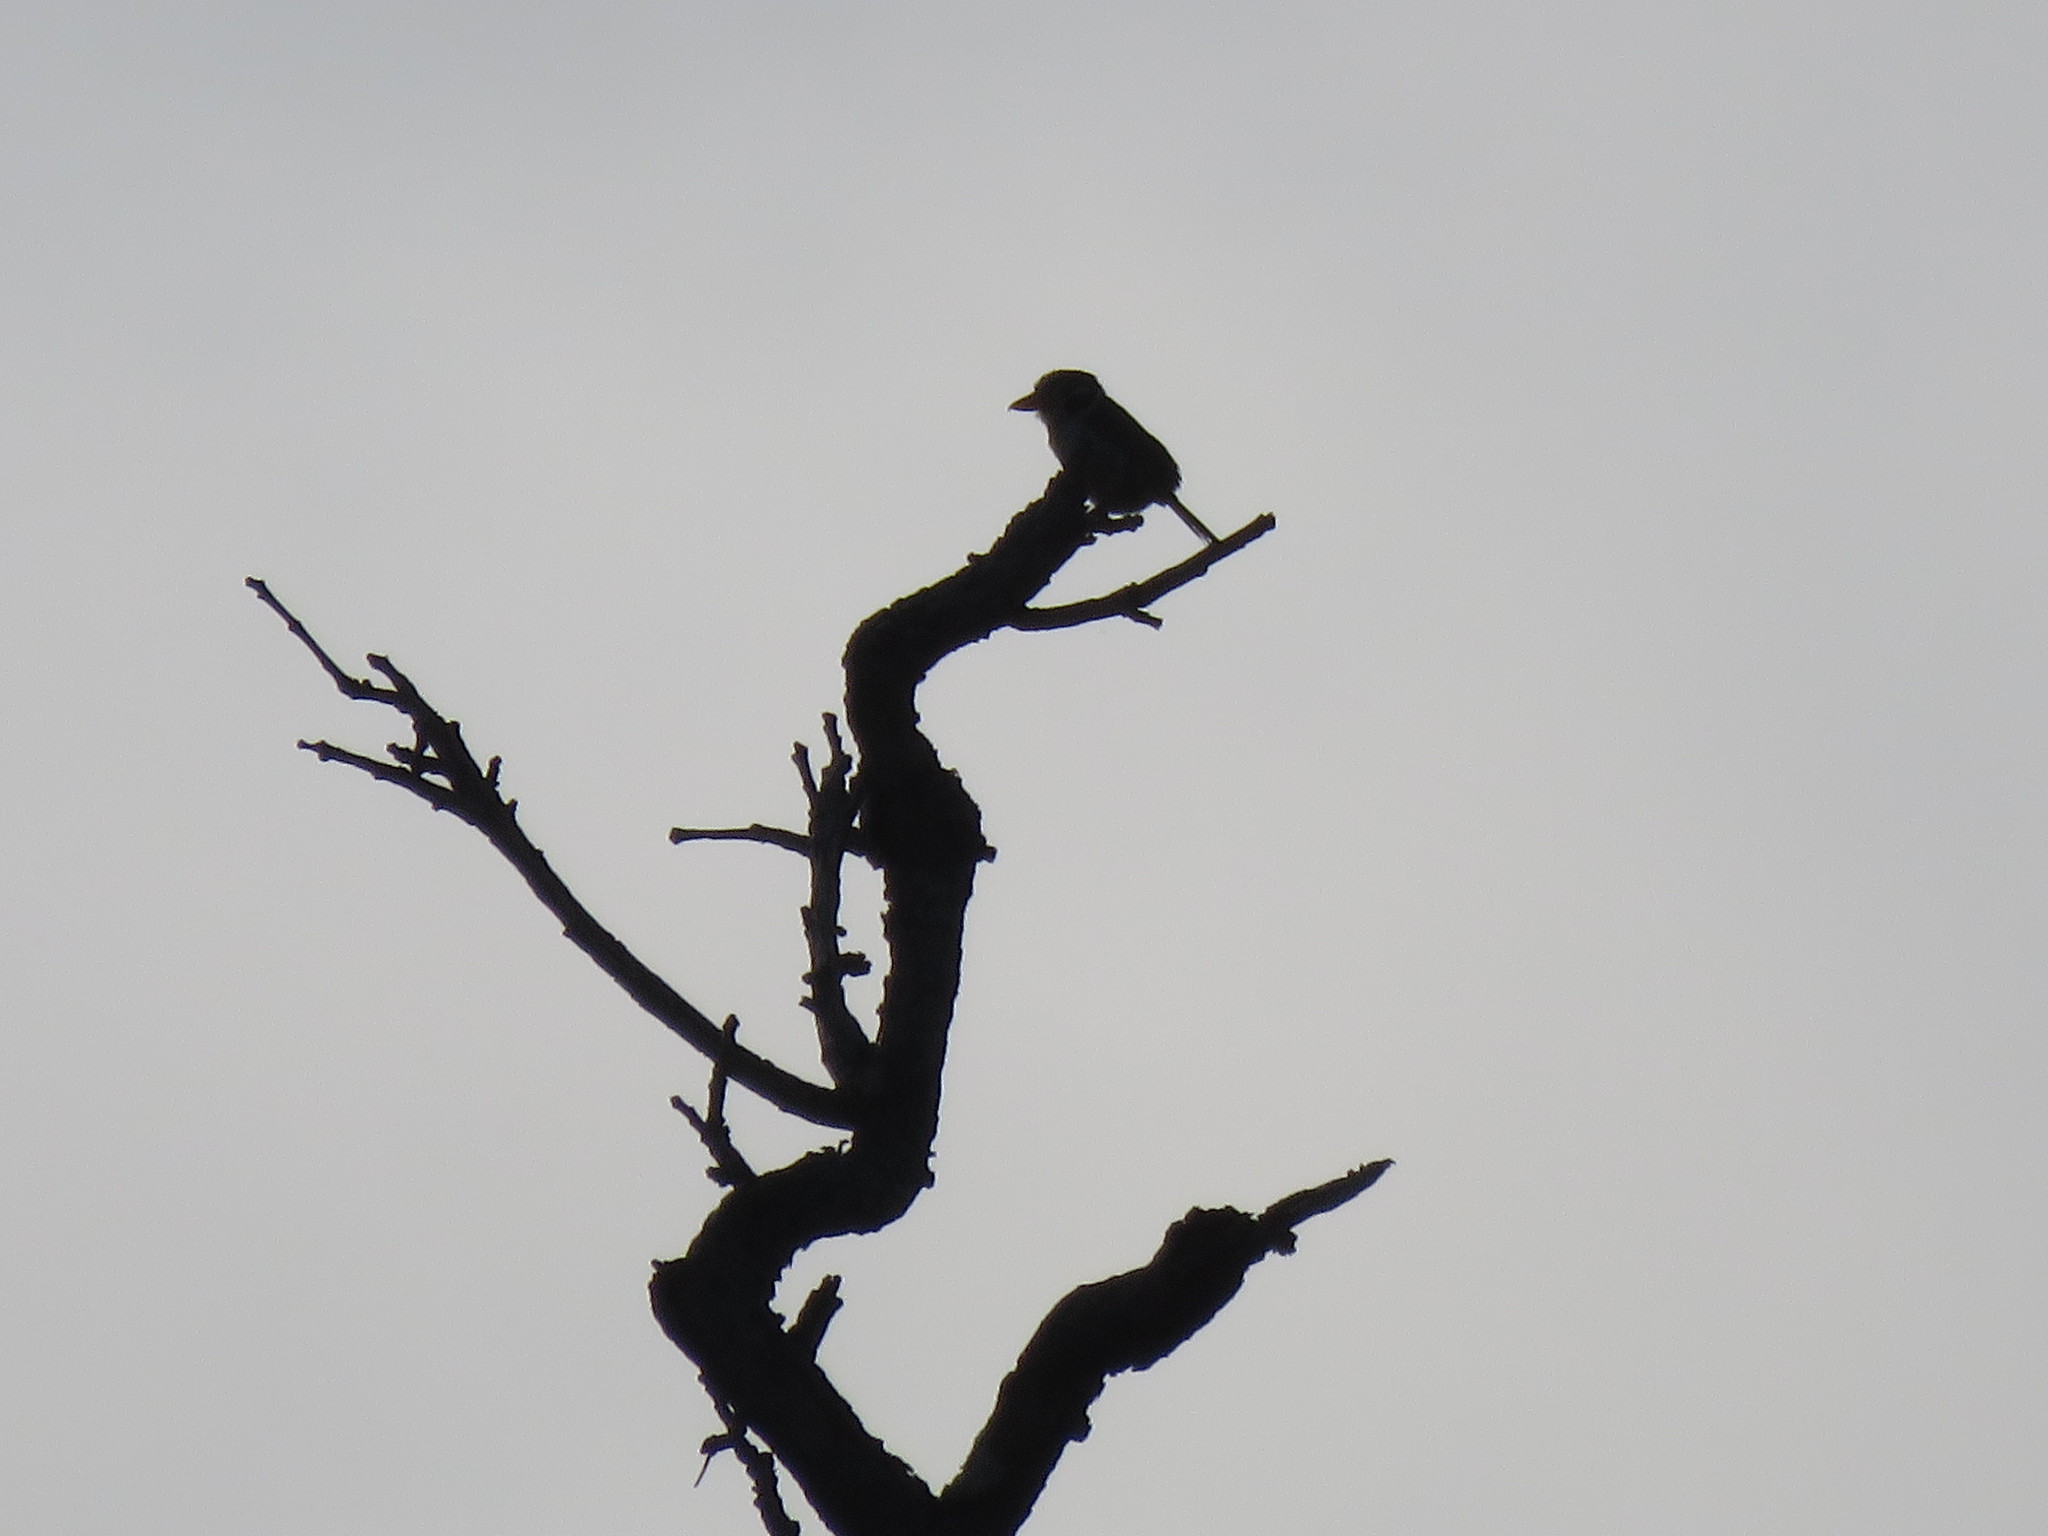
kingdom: Animalia
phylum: Chordata
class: Aves
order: Piciformes
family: Bucconidae
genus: Nystalus
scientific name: Nystalus chacuru
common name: White-eared puffbird
